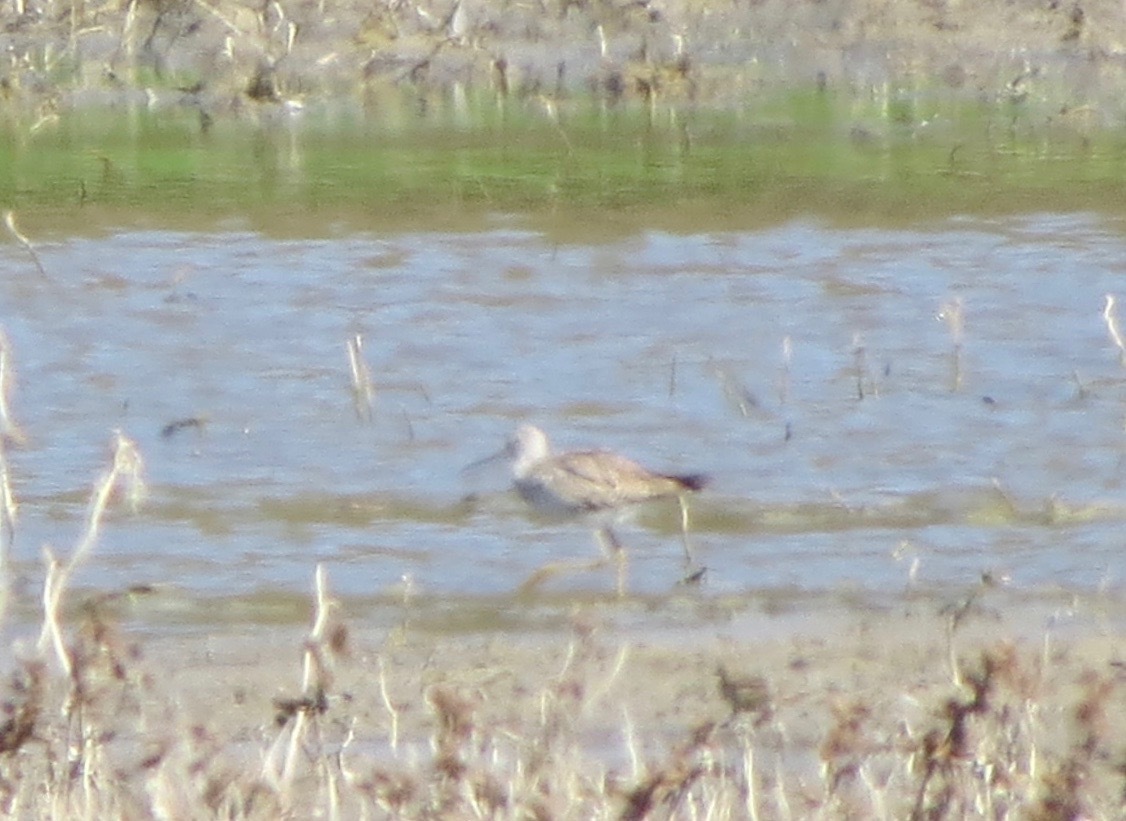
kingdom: Animalia
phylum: Chordata
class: Aves
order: Charadriiformes
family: Scolopacidae
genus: Tringa
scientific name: Tringa melanoleuca
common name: Greater yellowlegs
